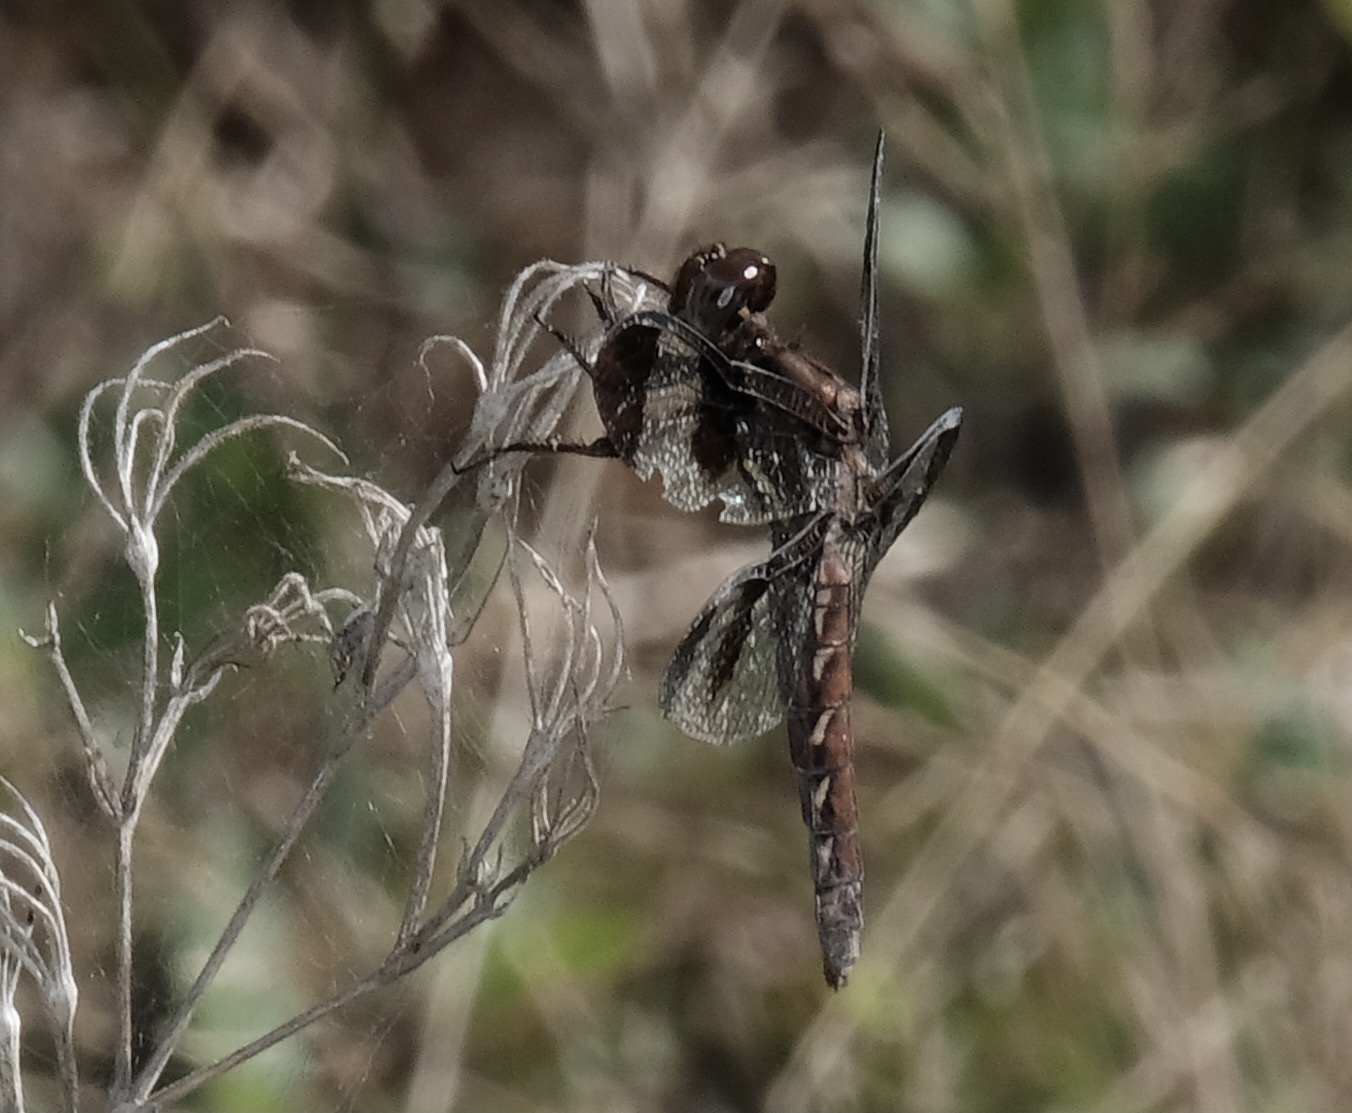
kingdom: Animalia
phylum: Arthropoda
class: Insecta
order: Odonata
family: Libellulidae
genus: Plathemis
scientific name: Plathemis lydia
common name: Common whitetail
